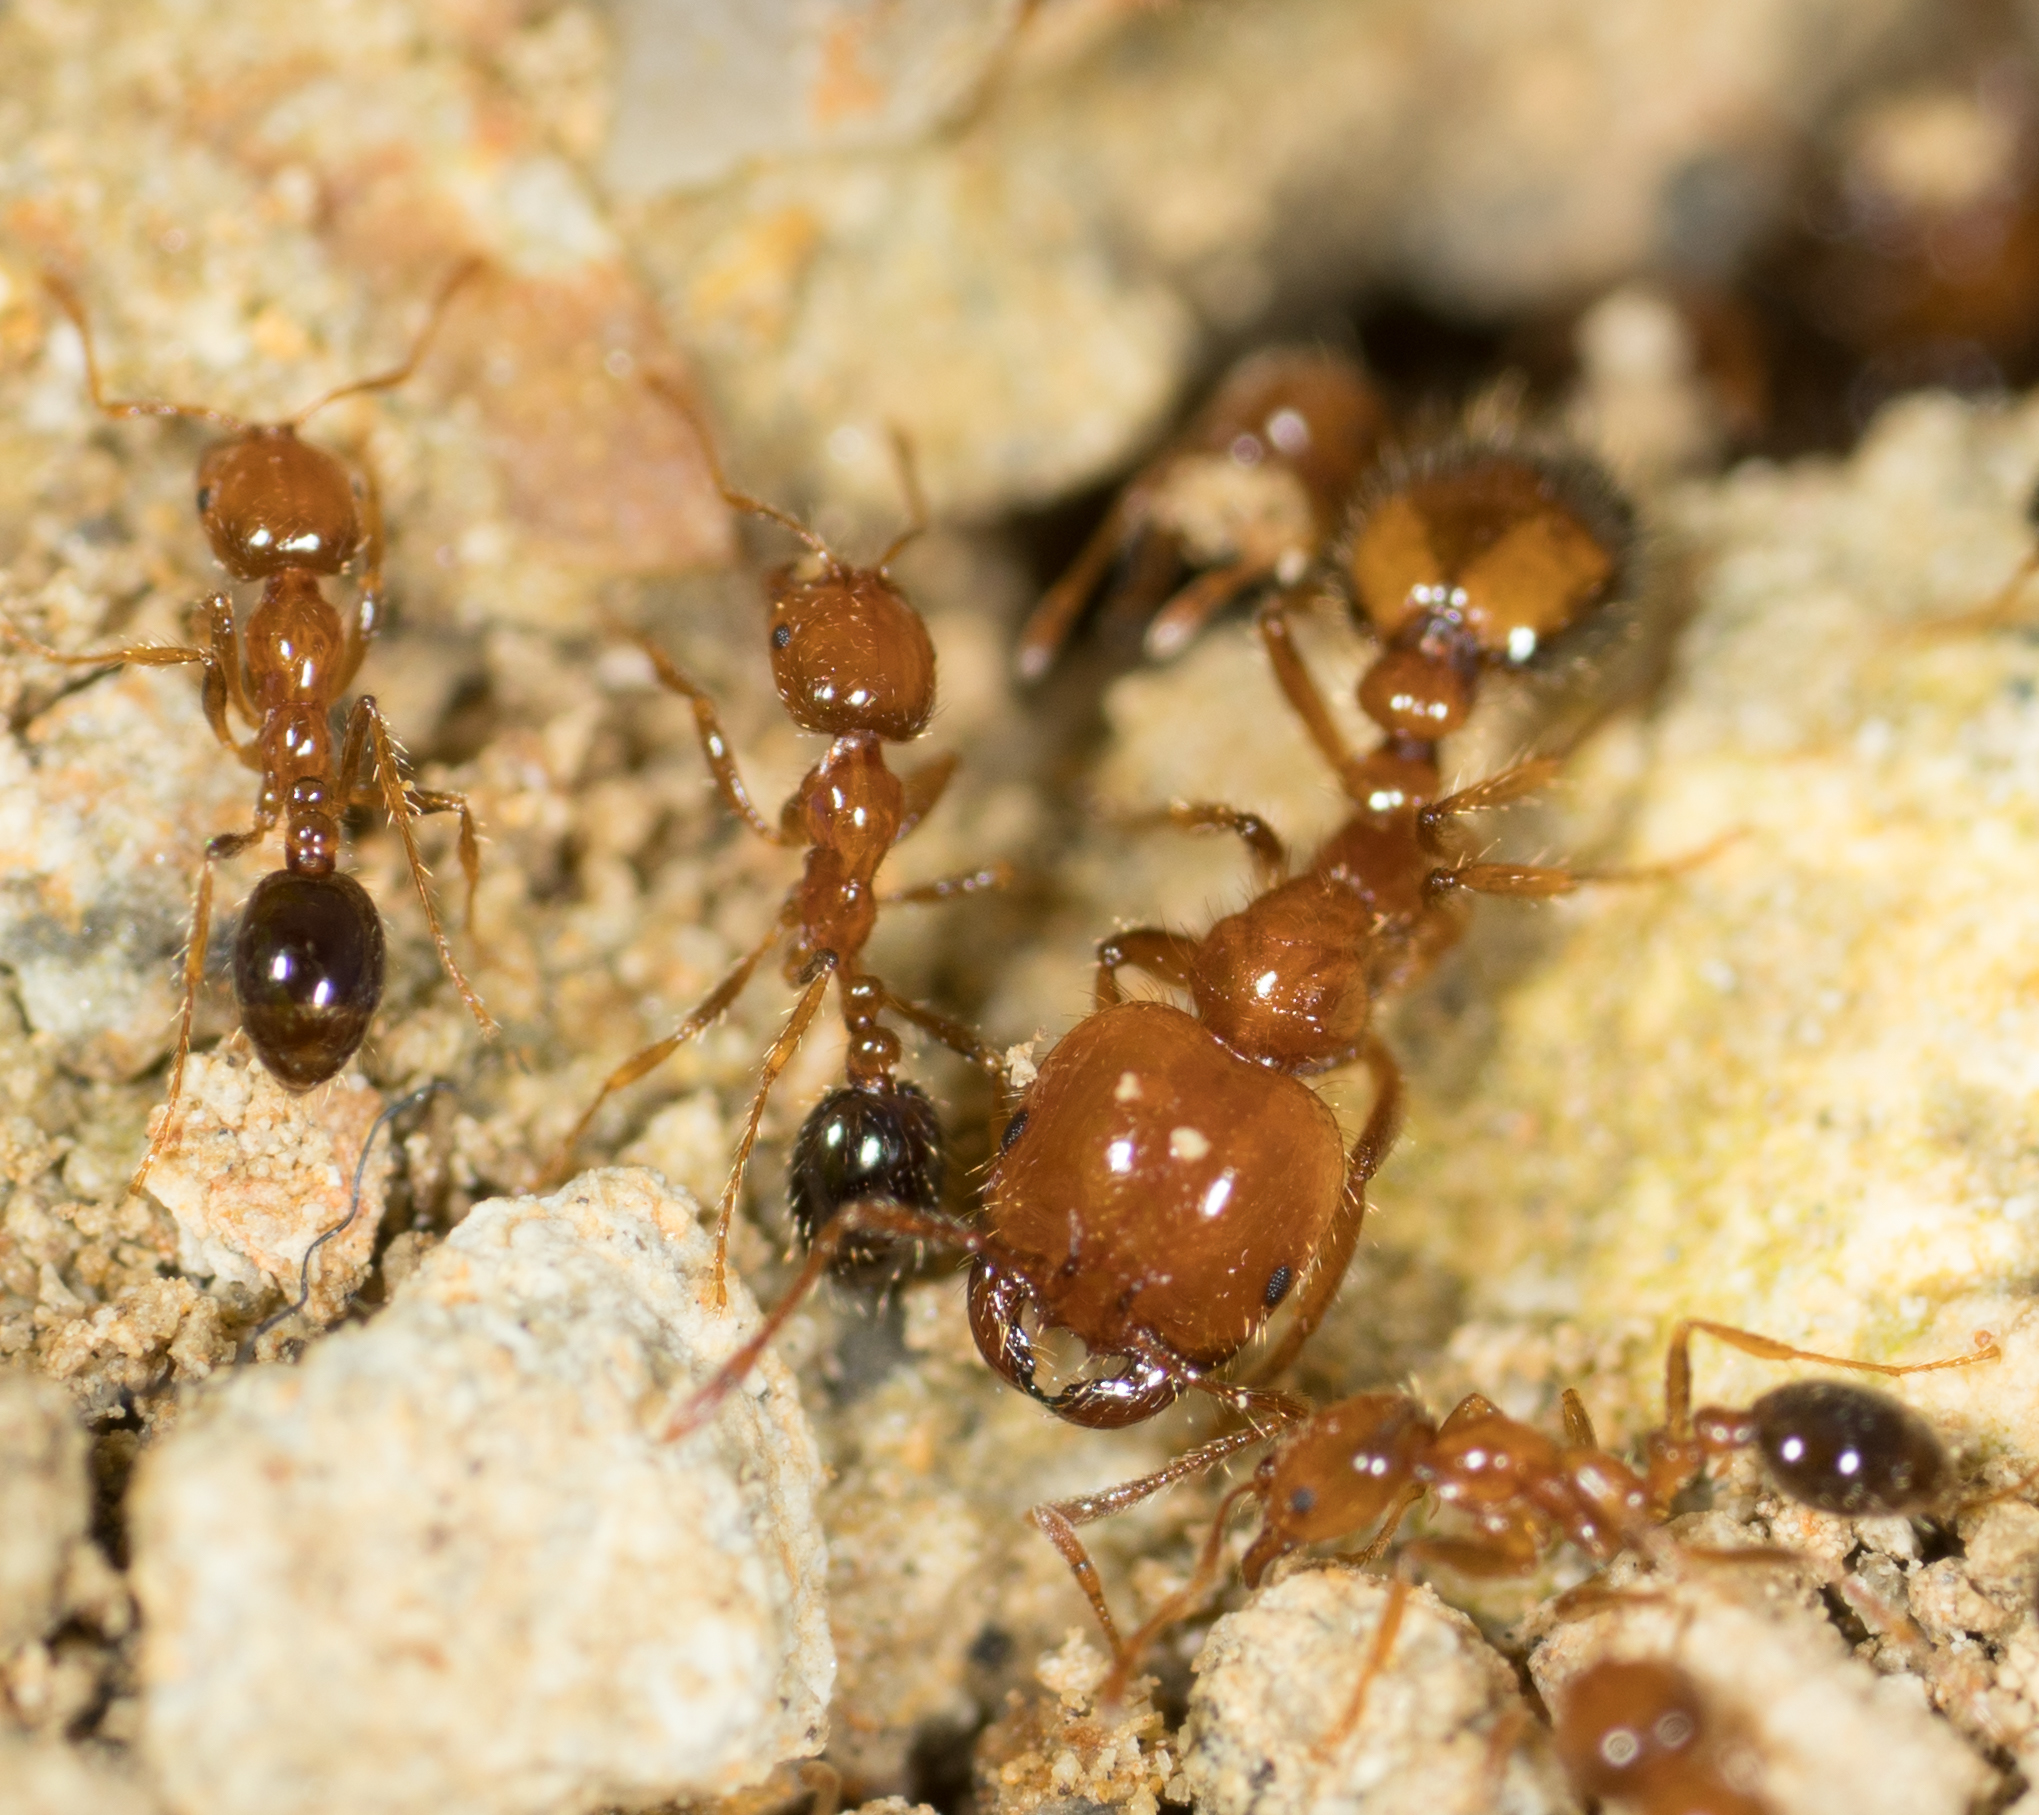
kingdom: Animalia
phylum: Arthropoda
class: Insecta
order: Hymenoptera
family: Formicidae
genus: Solenopsis
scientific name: Solenopsis xyloni
